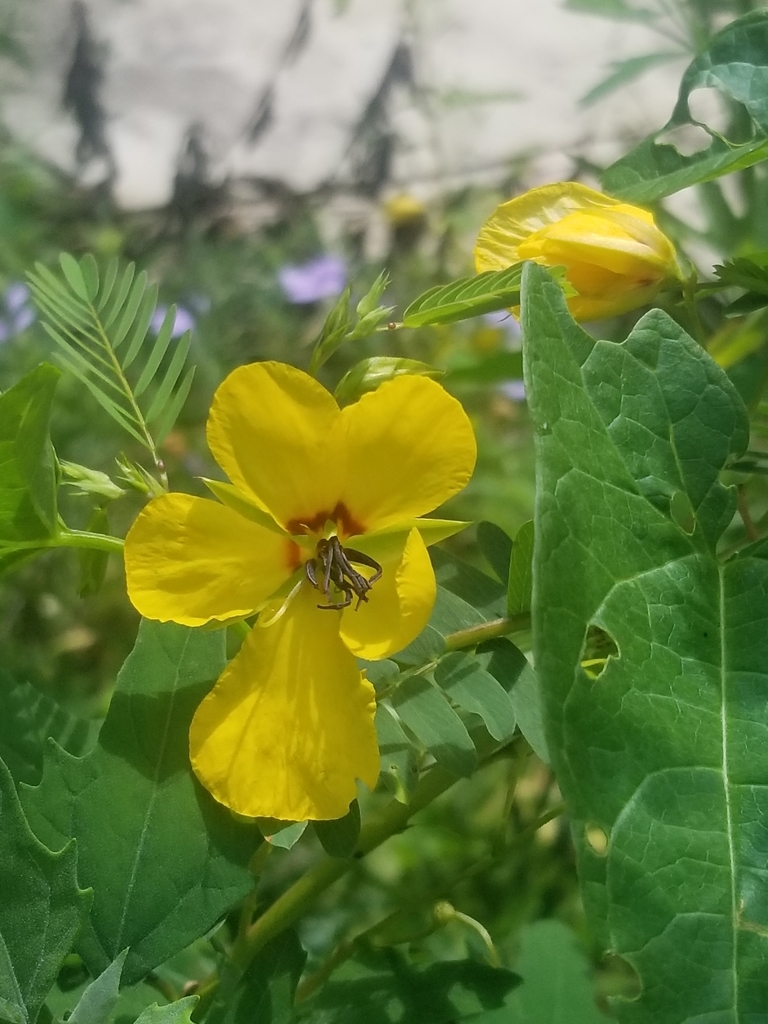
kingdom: Plantae
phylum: Tracheophyta
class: Magnoliopsida
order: Fabales
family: Fabaceae
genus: Chamaecrista
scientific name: Chamaecrista fasciculata
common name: Golden cassia
